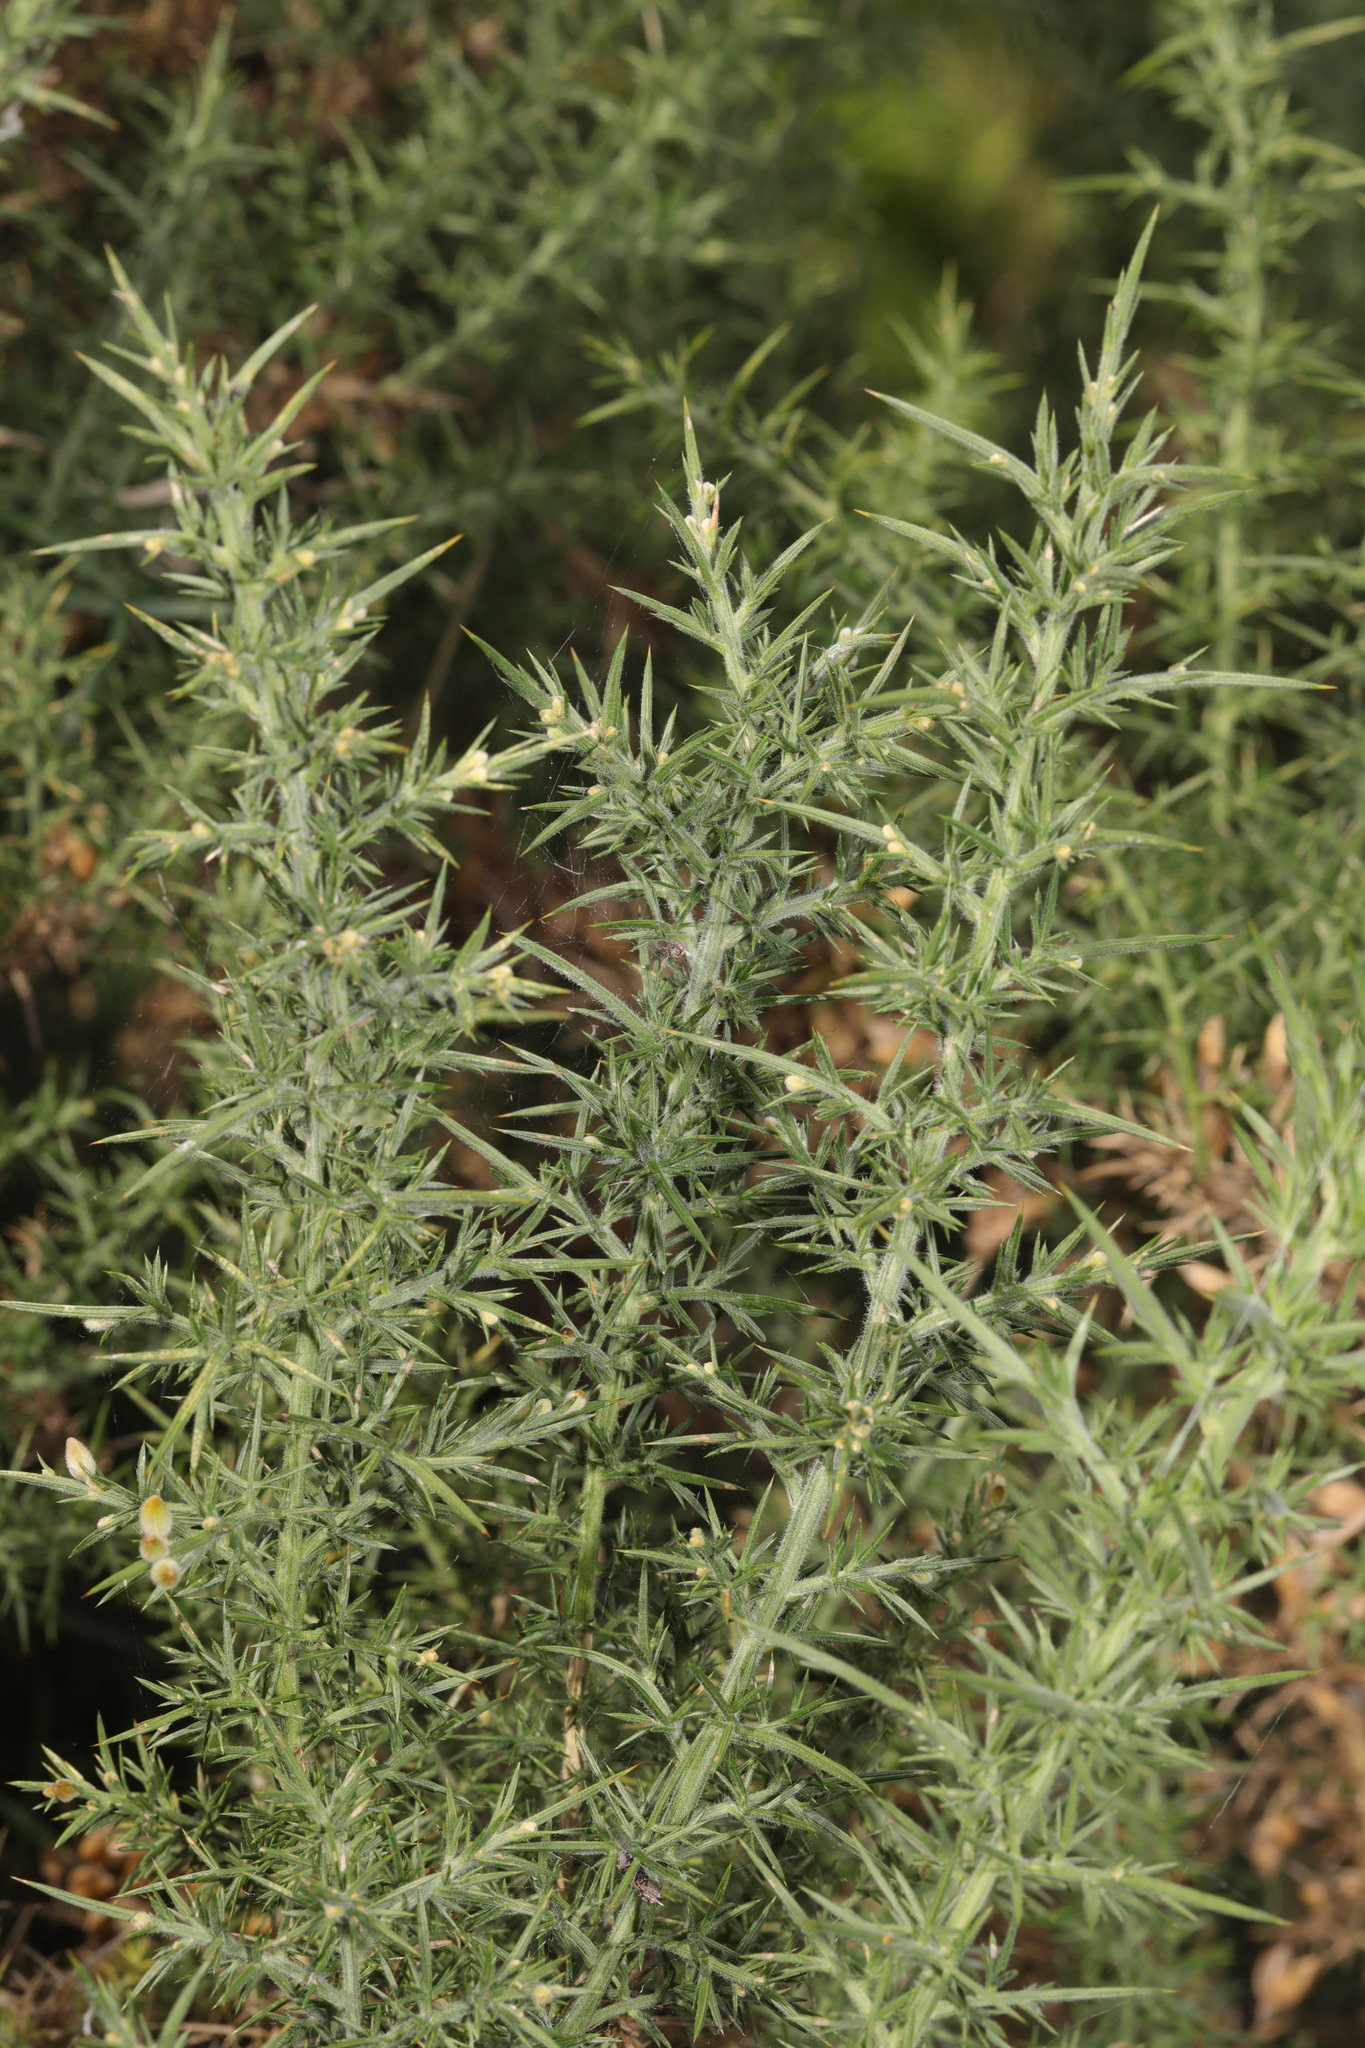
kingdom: Plantae
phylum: Tracheophyta
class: Magnoliopsida
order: Fabales
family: Fabaceae
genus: Ulex
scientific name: Ulex europaeus
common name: Common gorse
